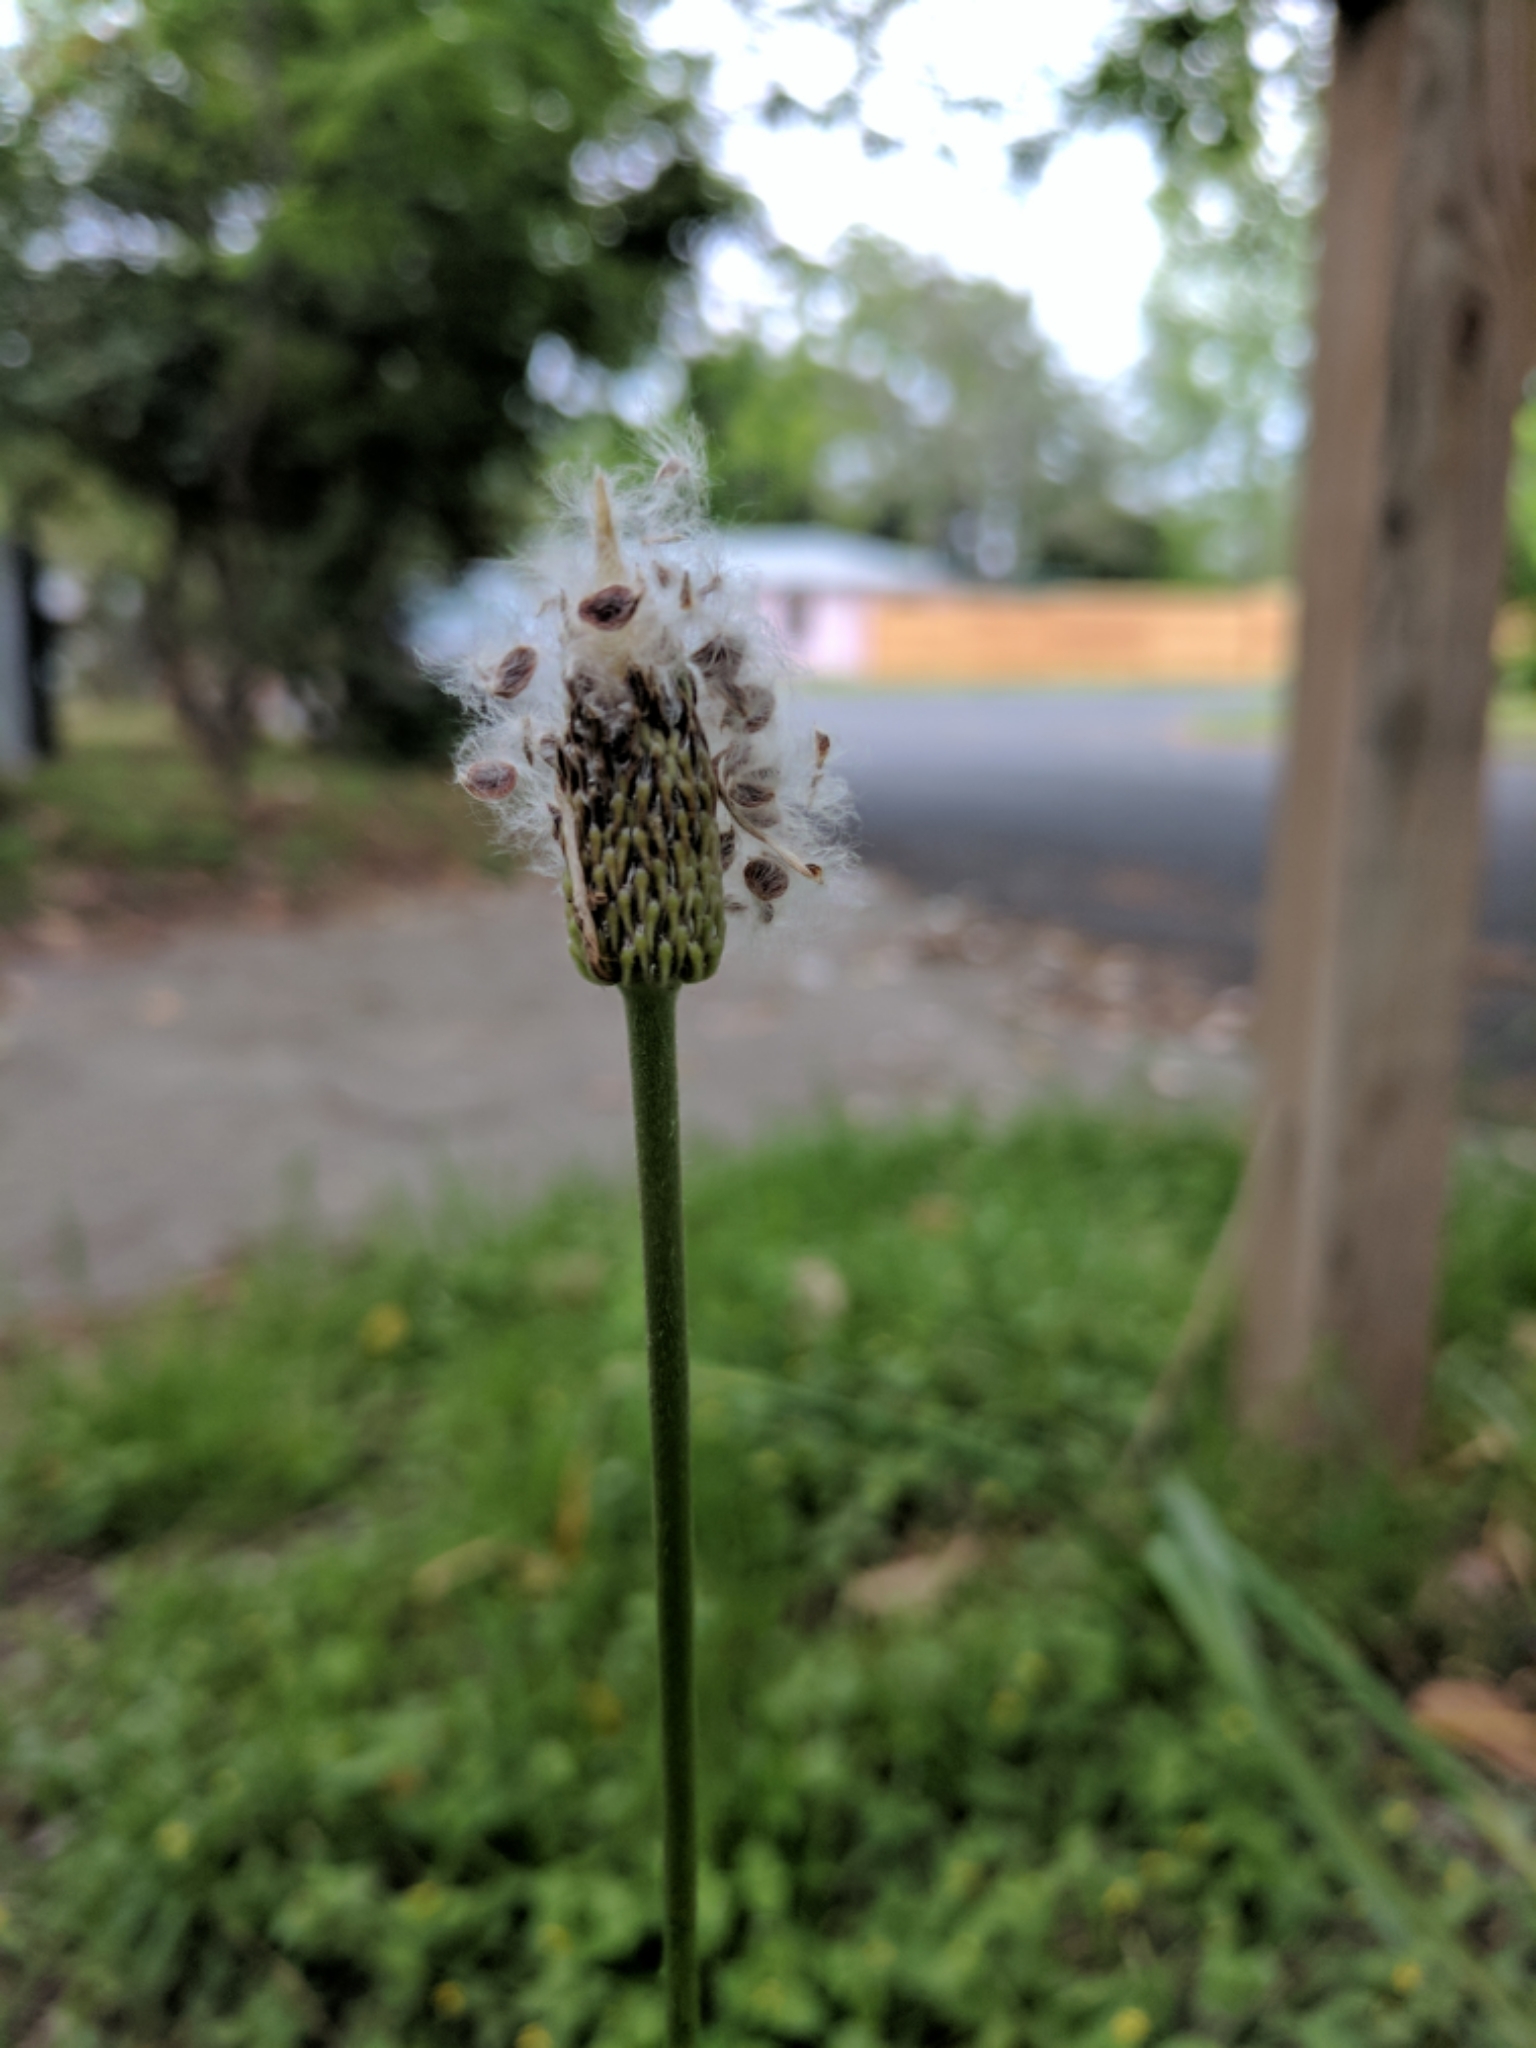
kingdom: Plantae
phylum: Tracheophyta
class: Magnoliopsida
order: Ranunculales
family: Ranunculaceae
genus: Anemone
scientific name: Anemone berlandieri
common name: Ten-petal anemone
